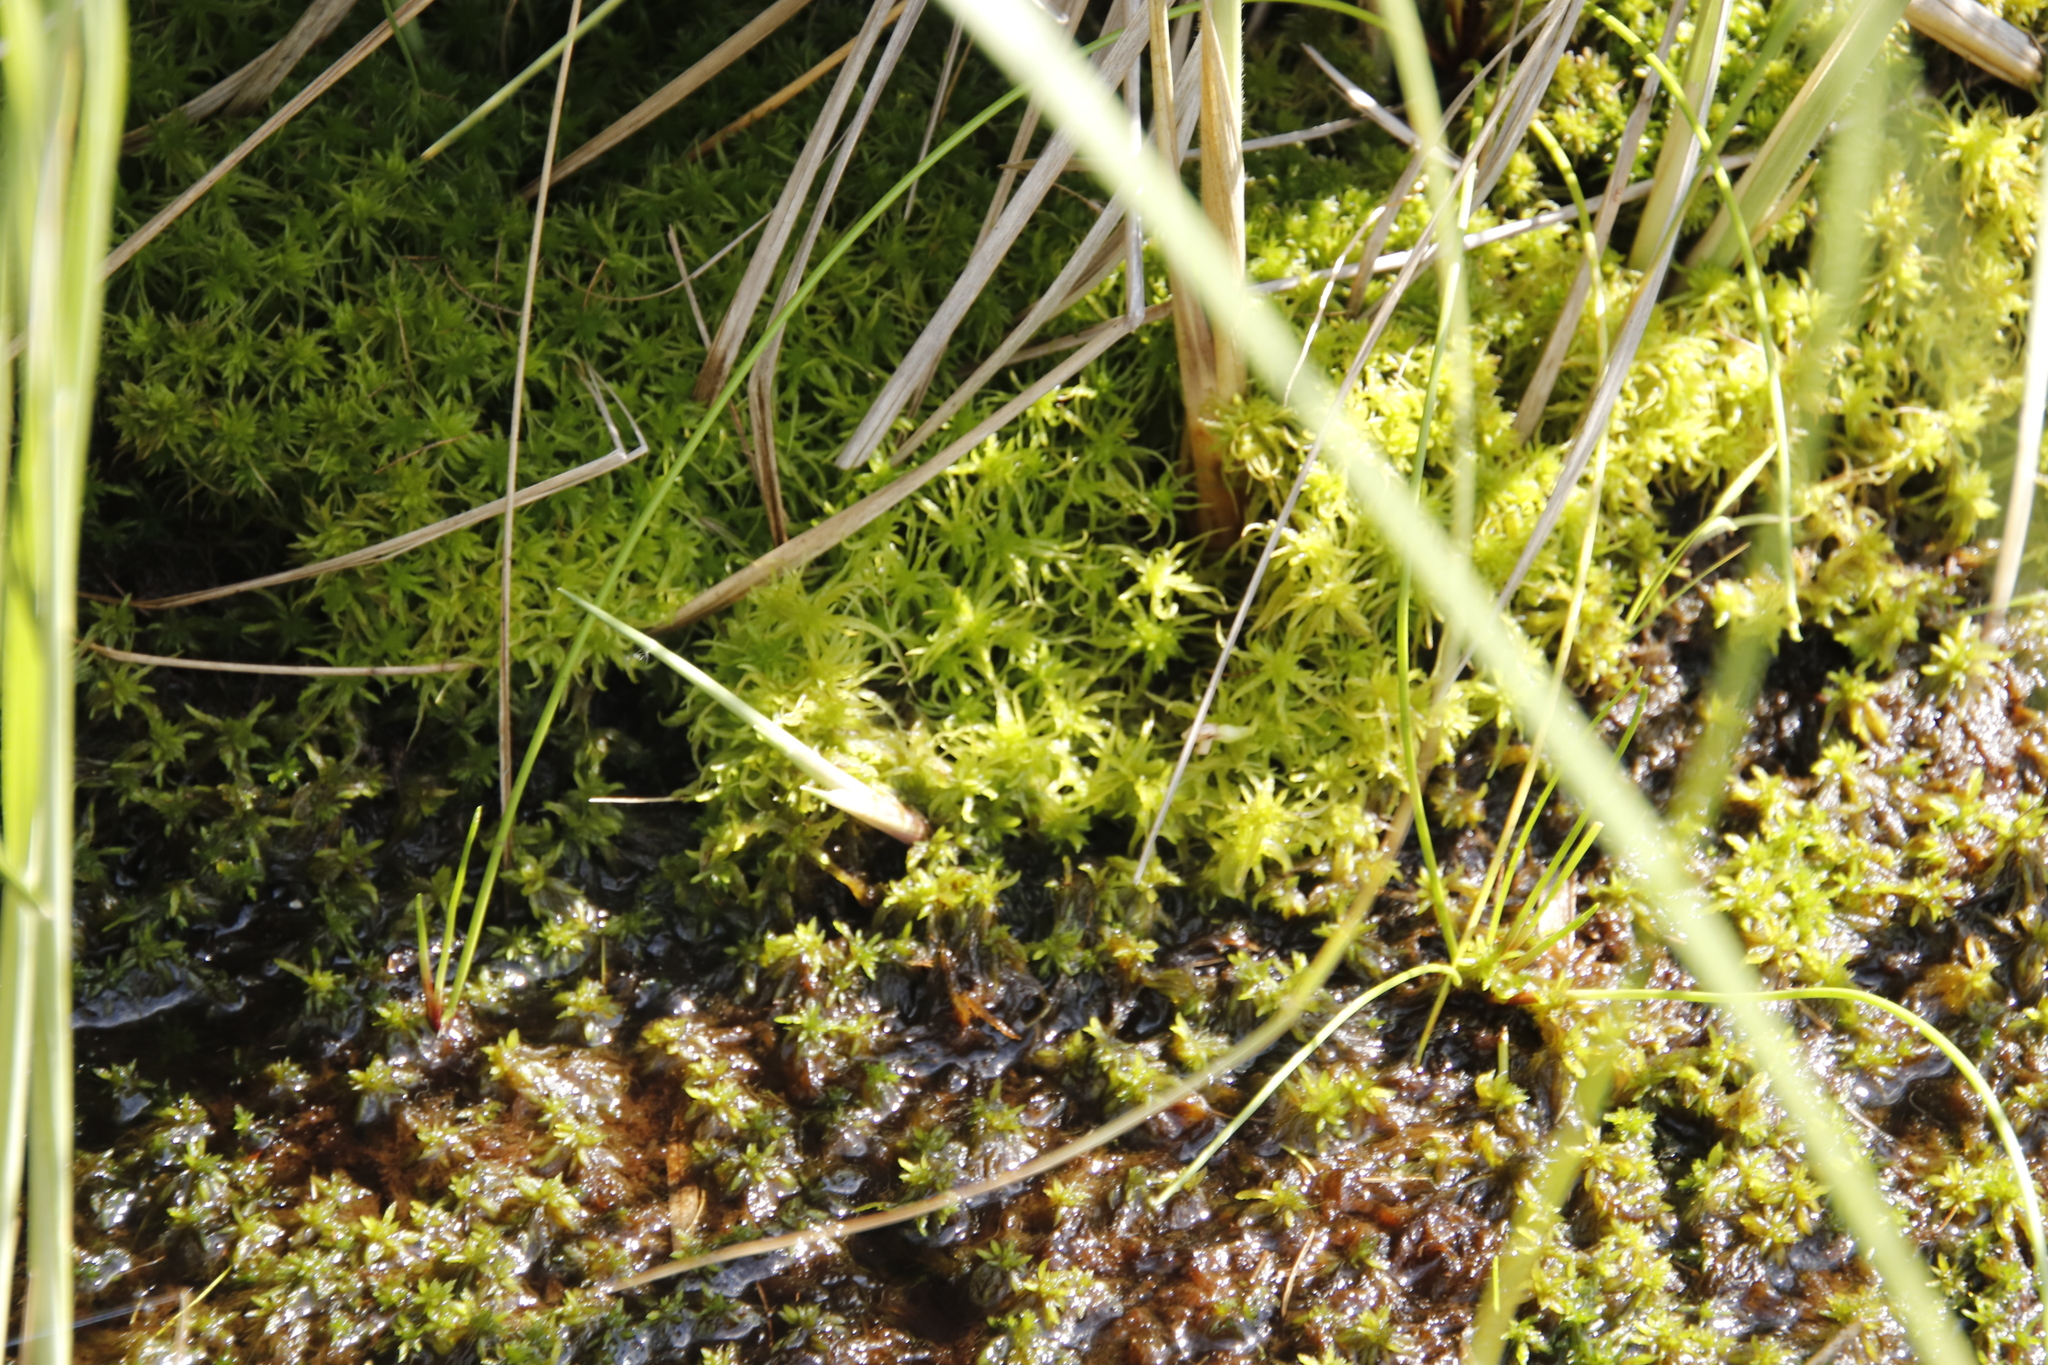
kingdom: Plantae
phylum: Bryophyta
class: Sphagnopsida
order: Sphagnales
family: Sphagnaceae
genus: Sphagnum
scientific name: Sphagnum truncatum
